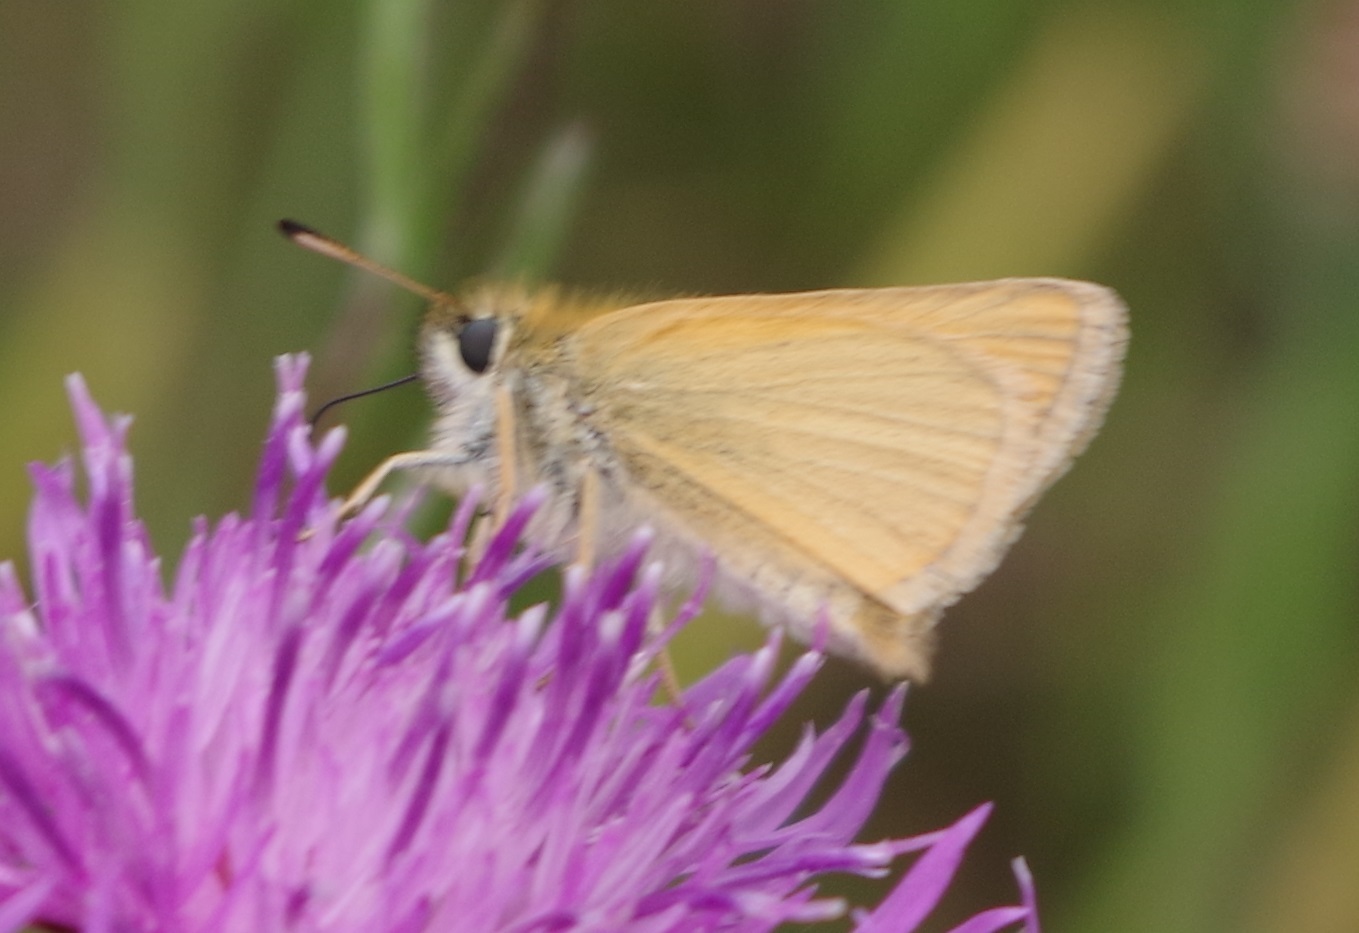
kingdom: Animalia
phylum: Arthropoda
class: Insecta
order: Lepidoptera
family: Hesperiidae
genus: Thymelicus
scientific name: Thymelicus lineola
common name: Essex skipper
